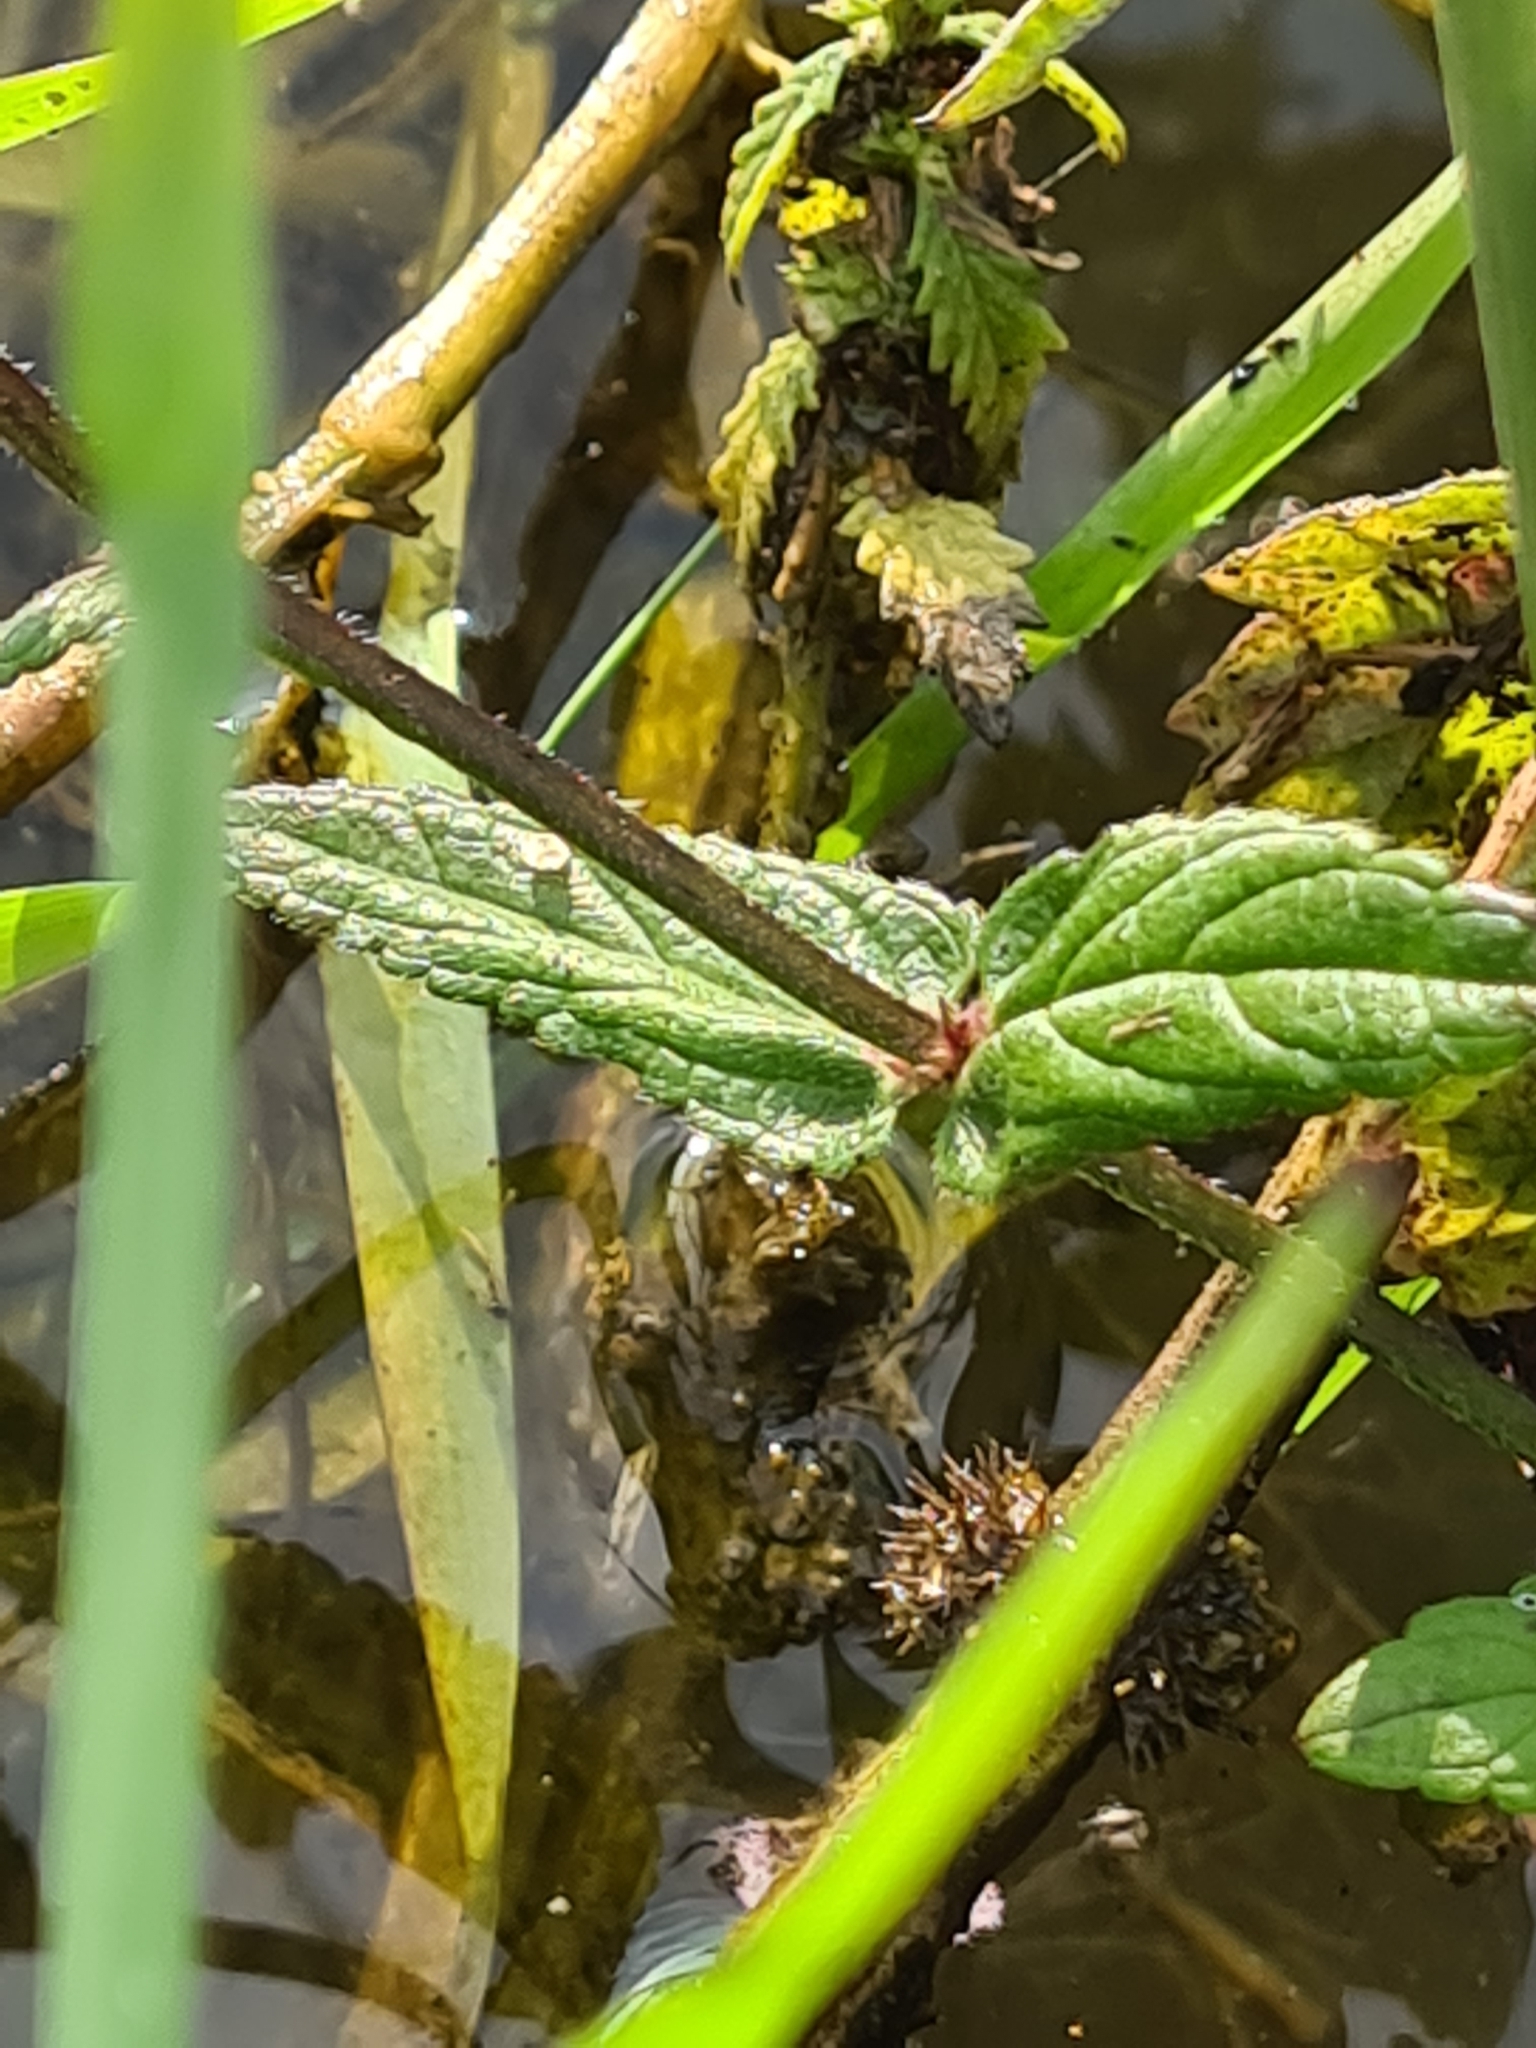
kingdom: Plantae
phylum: Tracheophyta
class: Magnoliopsida
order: Lamiales
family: Lamiaceae
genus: Stachys
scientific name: Stachys palustris
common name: Marsh woundwort
